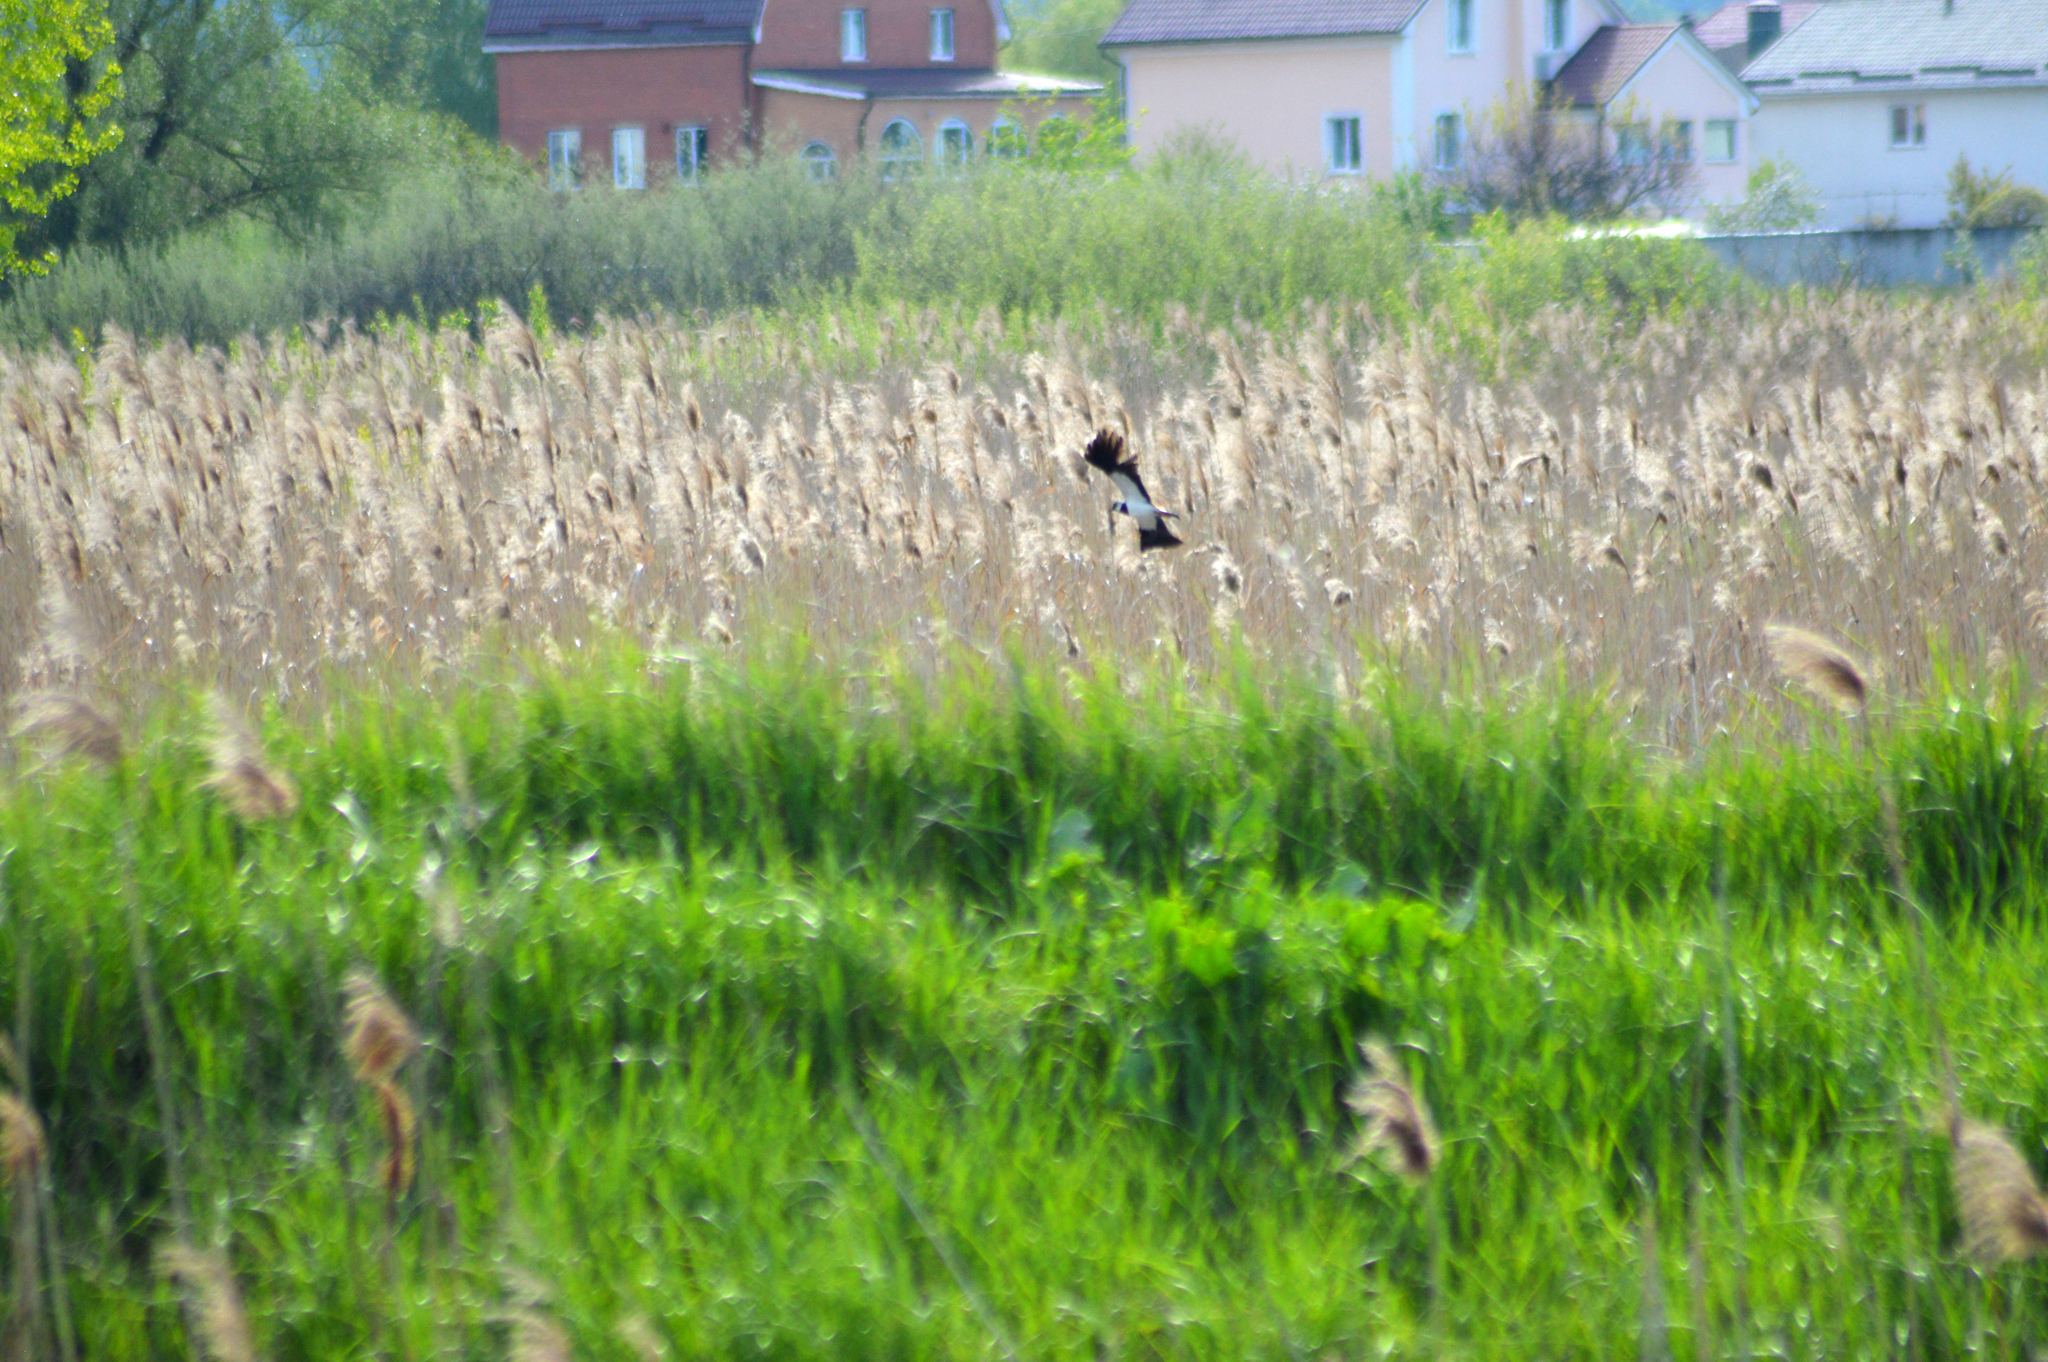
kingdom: Animalia
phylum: Chordata
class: Aves
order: Charadriiformes
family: Charadriidae
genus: Vanellus
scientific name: Vanellus vanellus
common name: Northern lapwing
